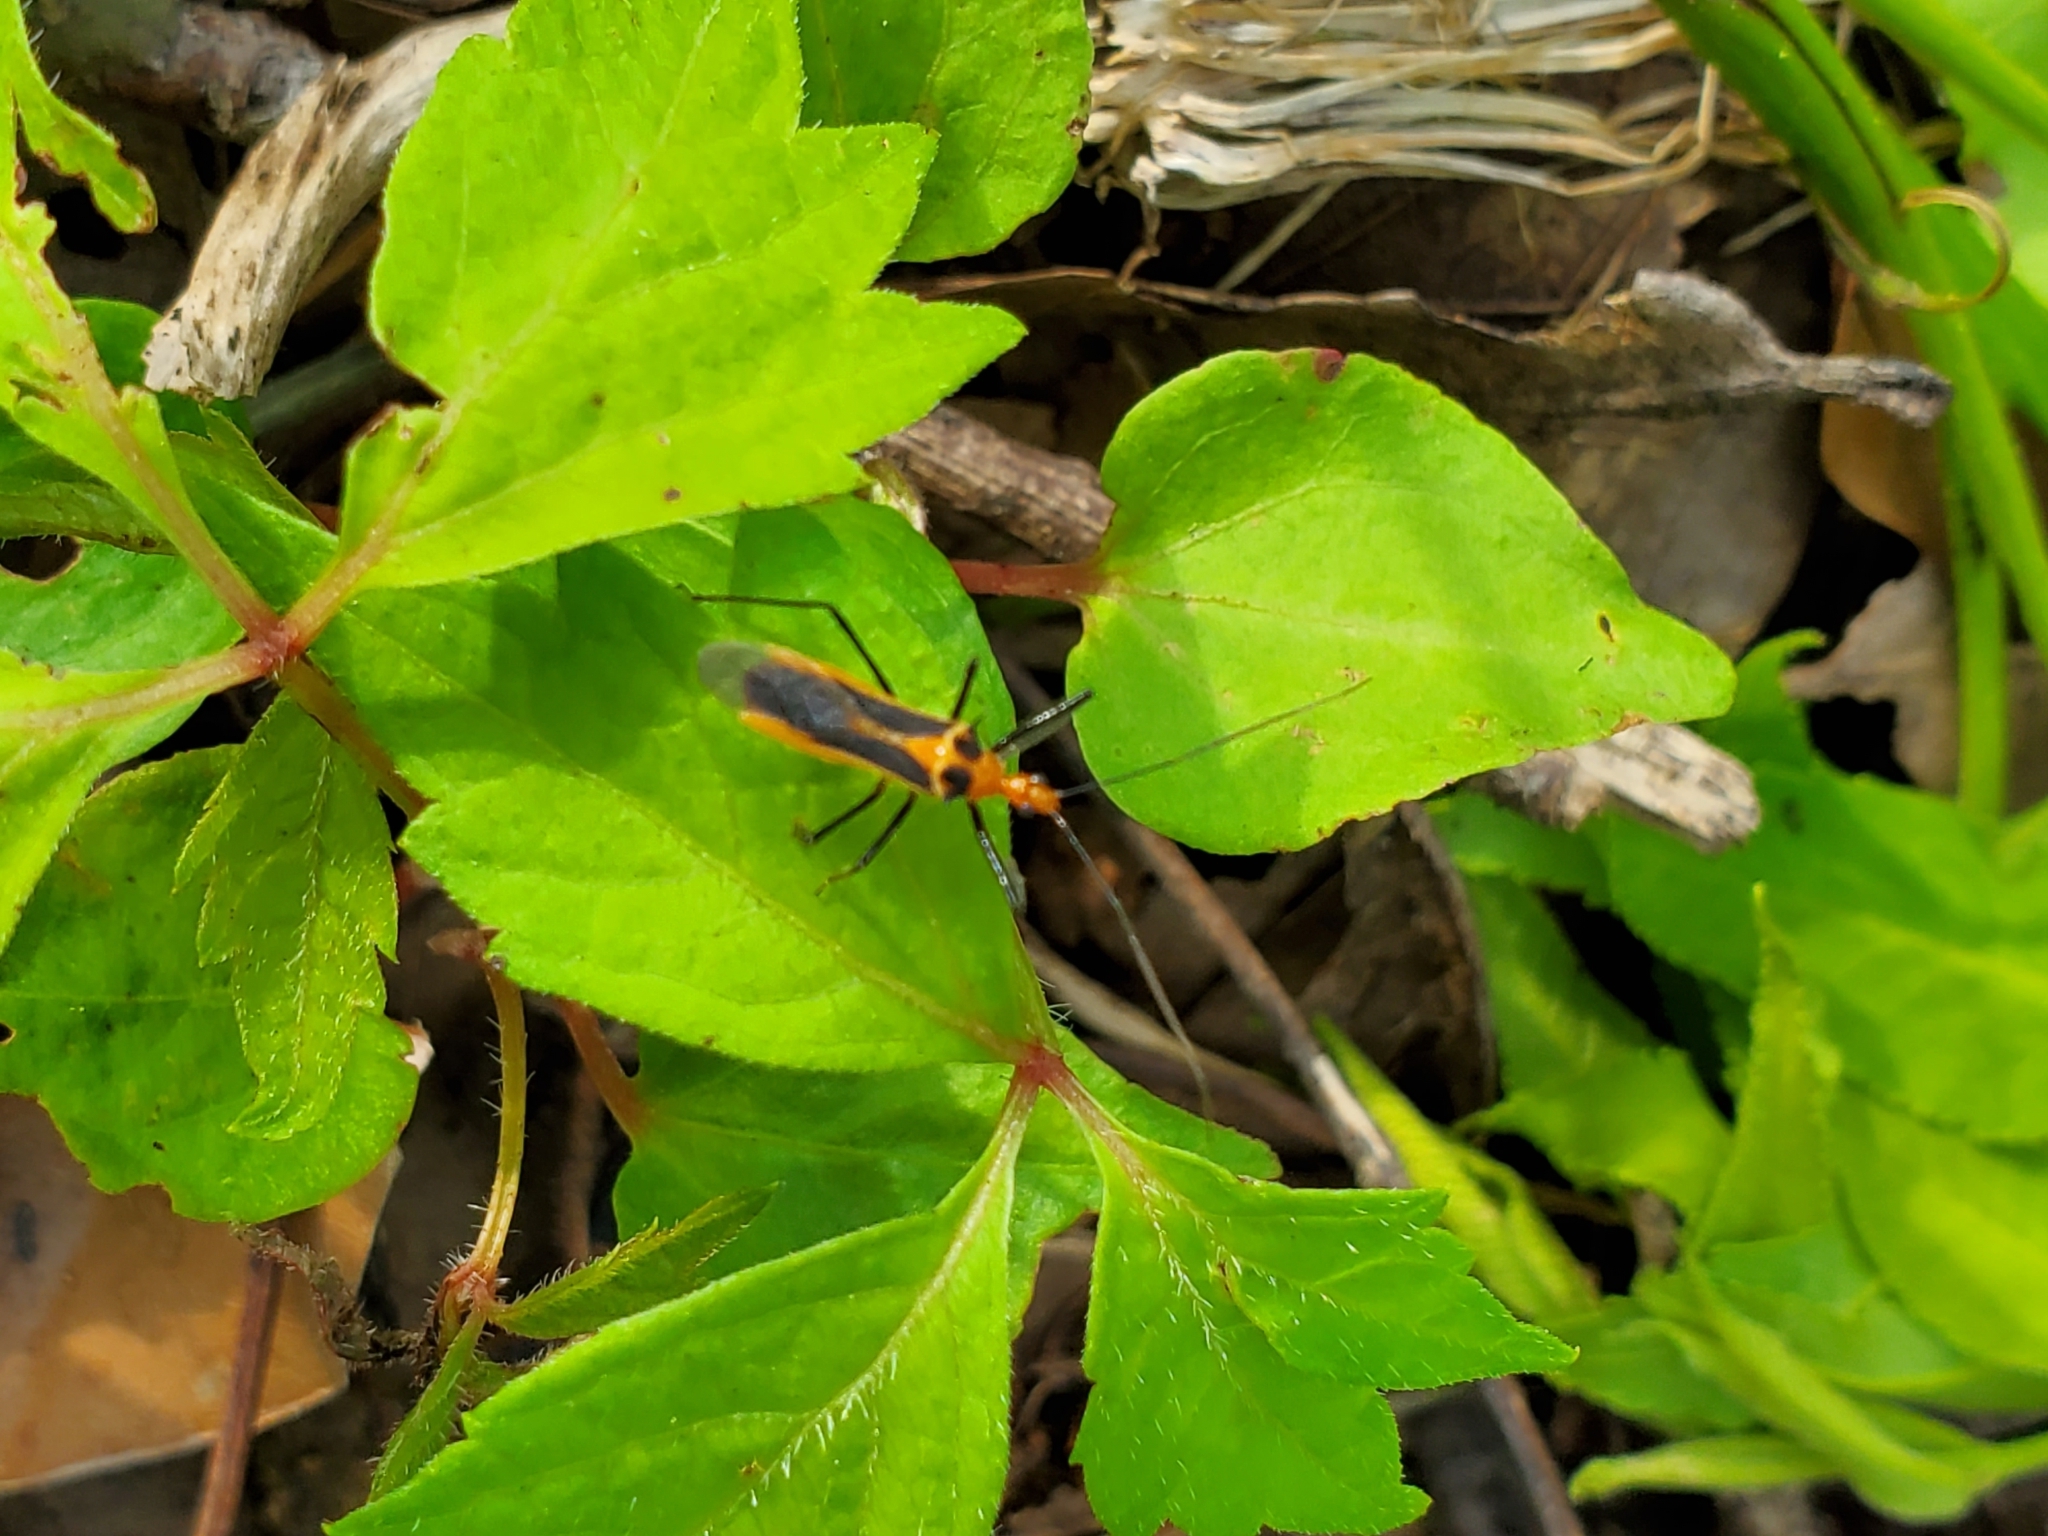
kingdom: Animalia
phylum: Arthropoda
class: Insecta
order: Hemiptera
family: Reduviidae
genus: Repipta
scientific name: Repipta taurus
